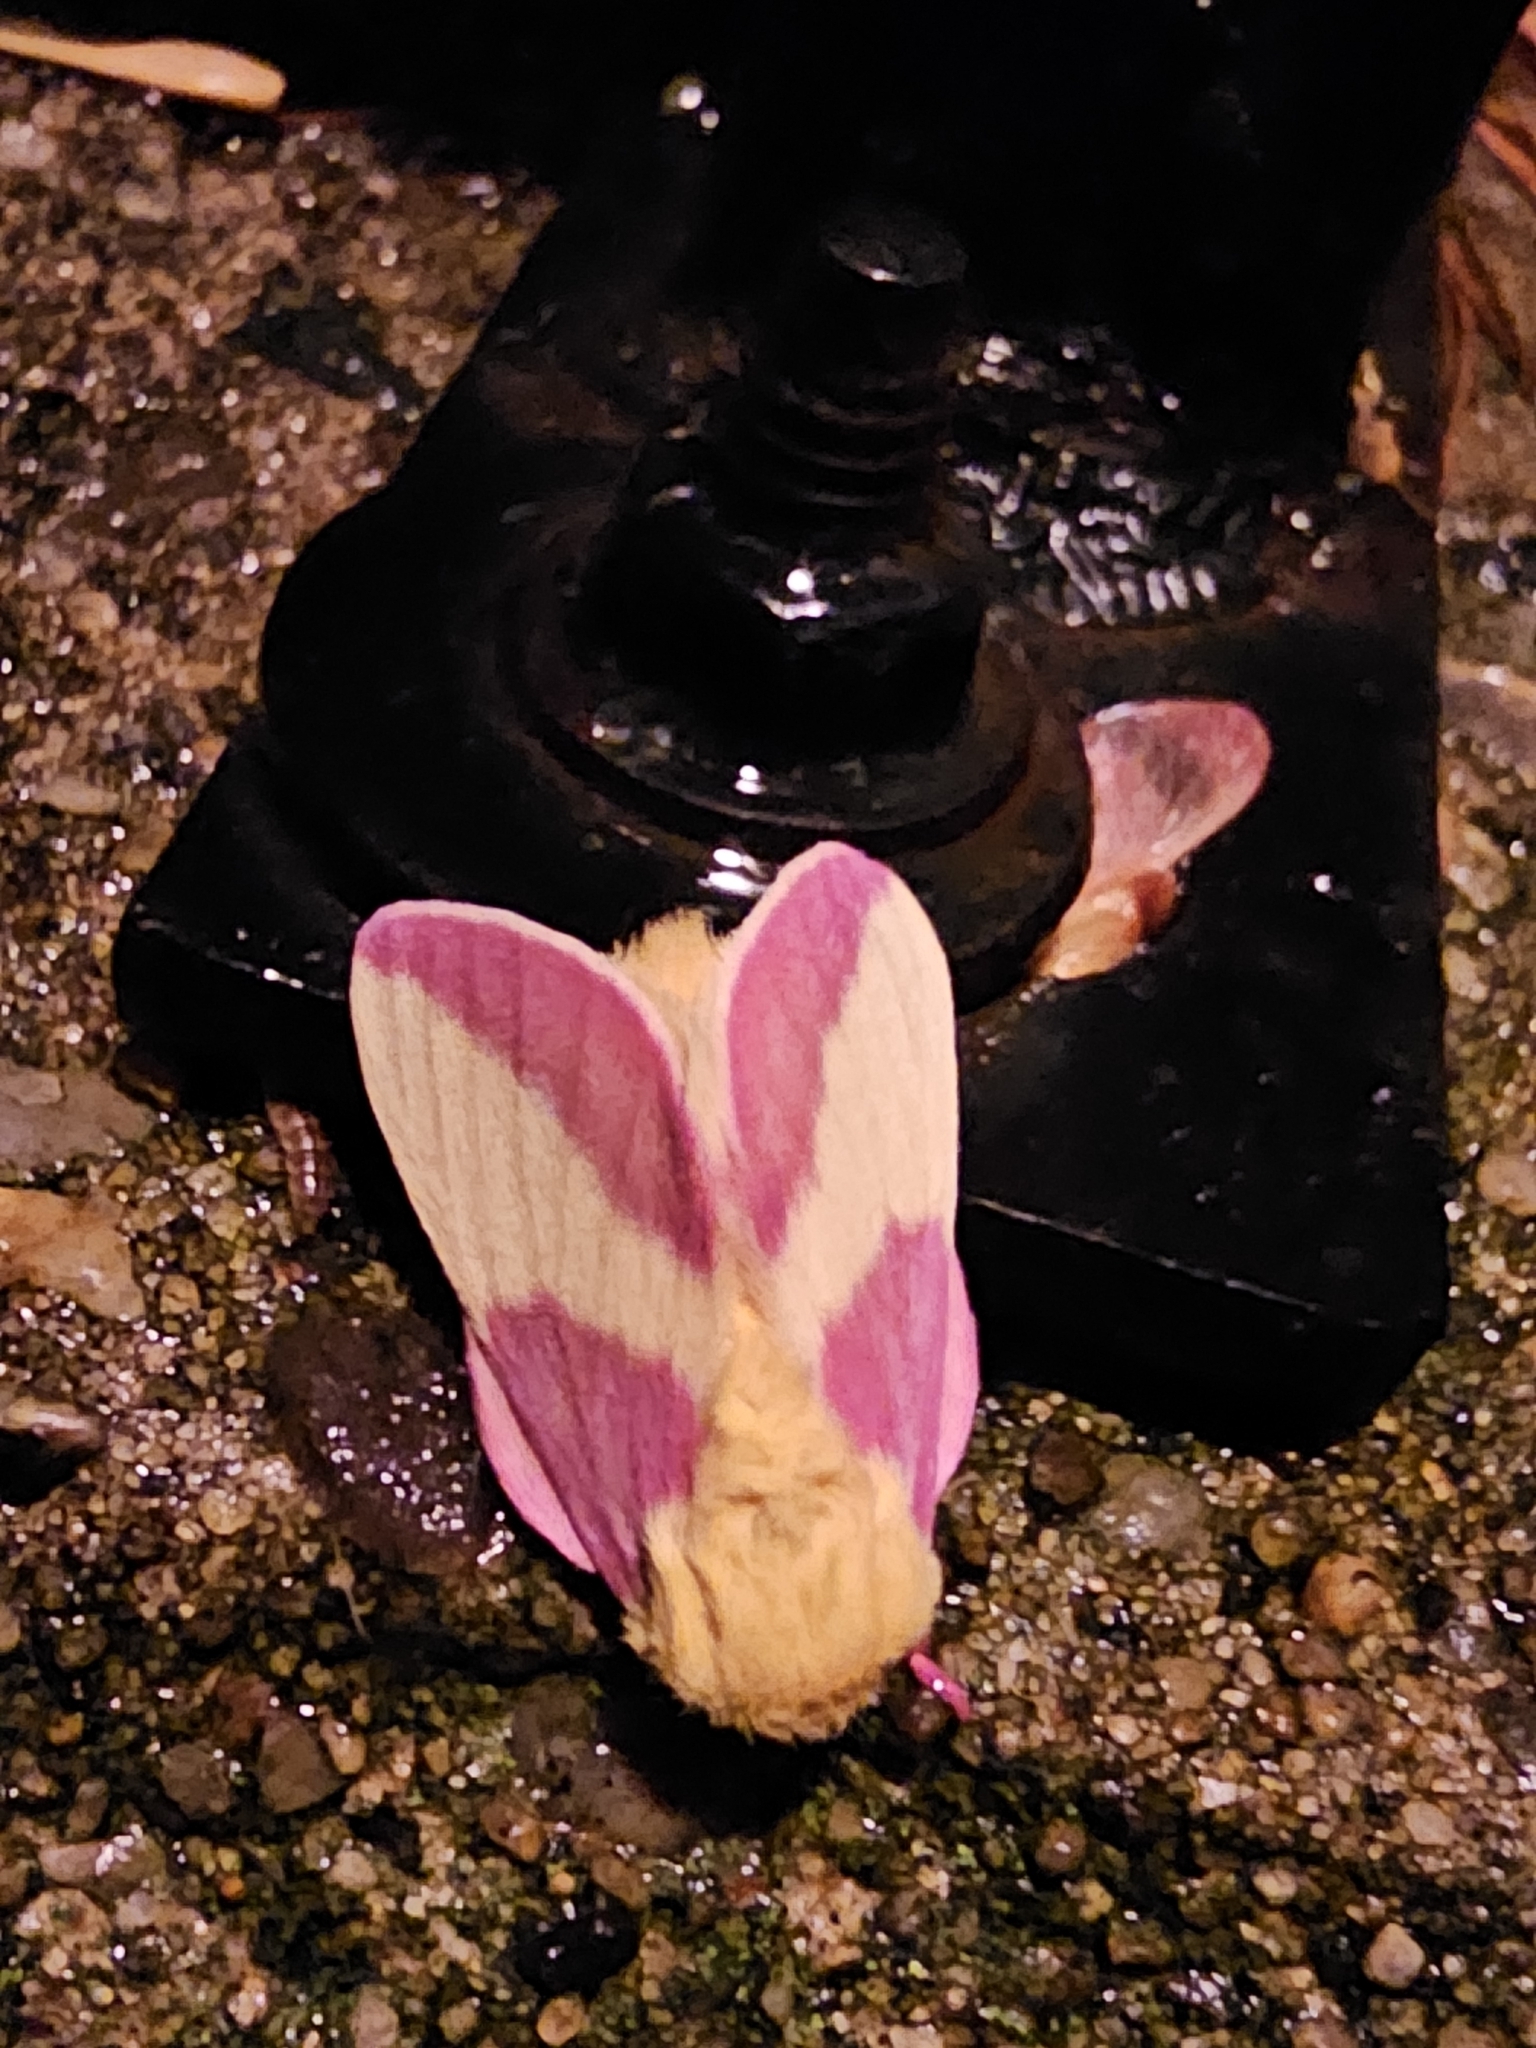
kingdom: Animalia
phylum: Arthropoda
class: Insecta
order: Lepidoptera
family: Saturniidae
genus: Dryocampa
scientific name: Dryocampa rubicunda
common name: Rosy maple moth
